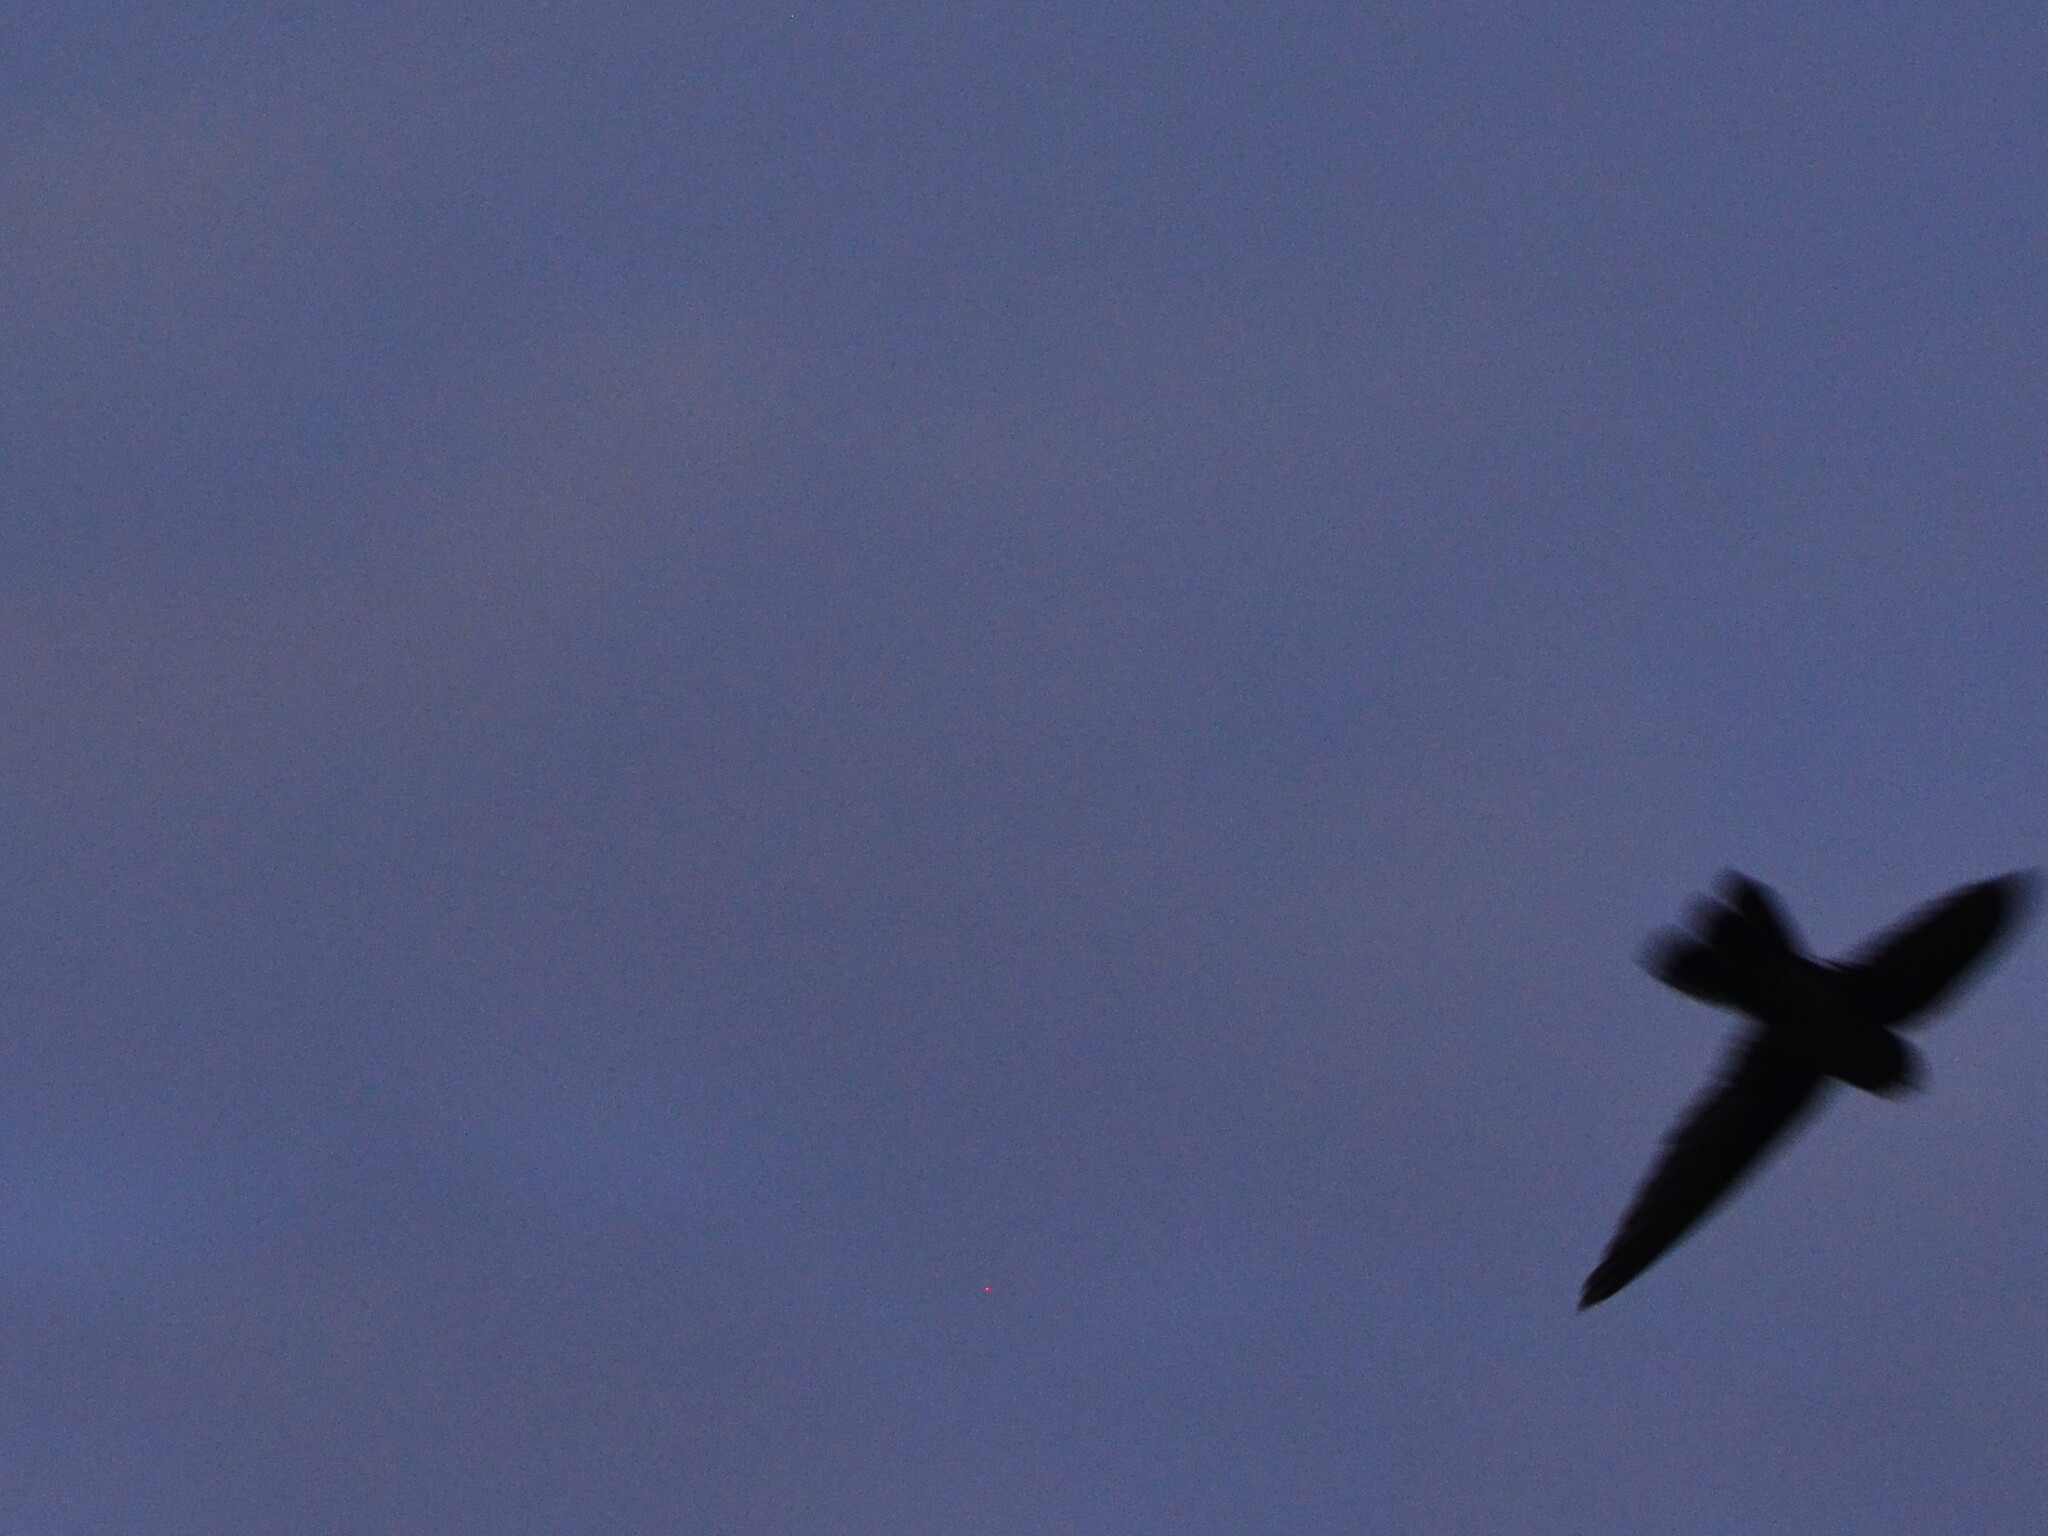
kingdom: Animalia
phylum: Chordata
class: Aves
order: Apodiformes
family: Apodidae
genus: Aerodramus
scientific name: Aerodramus sawtelli
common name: Atiu swiftlet
